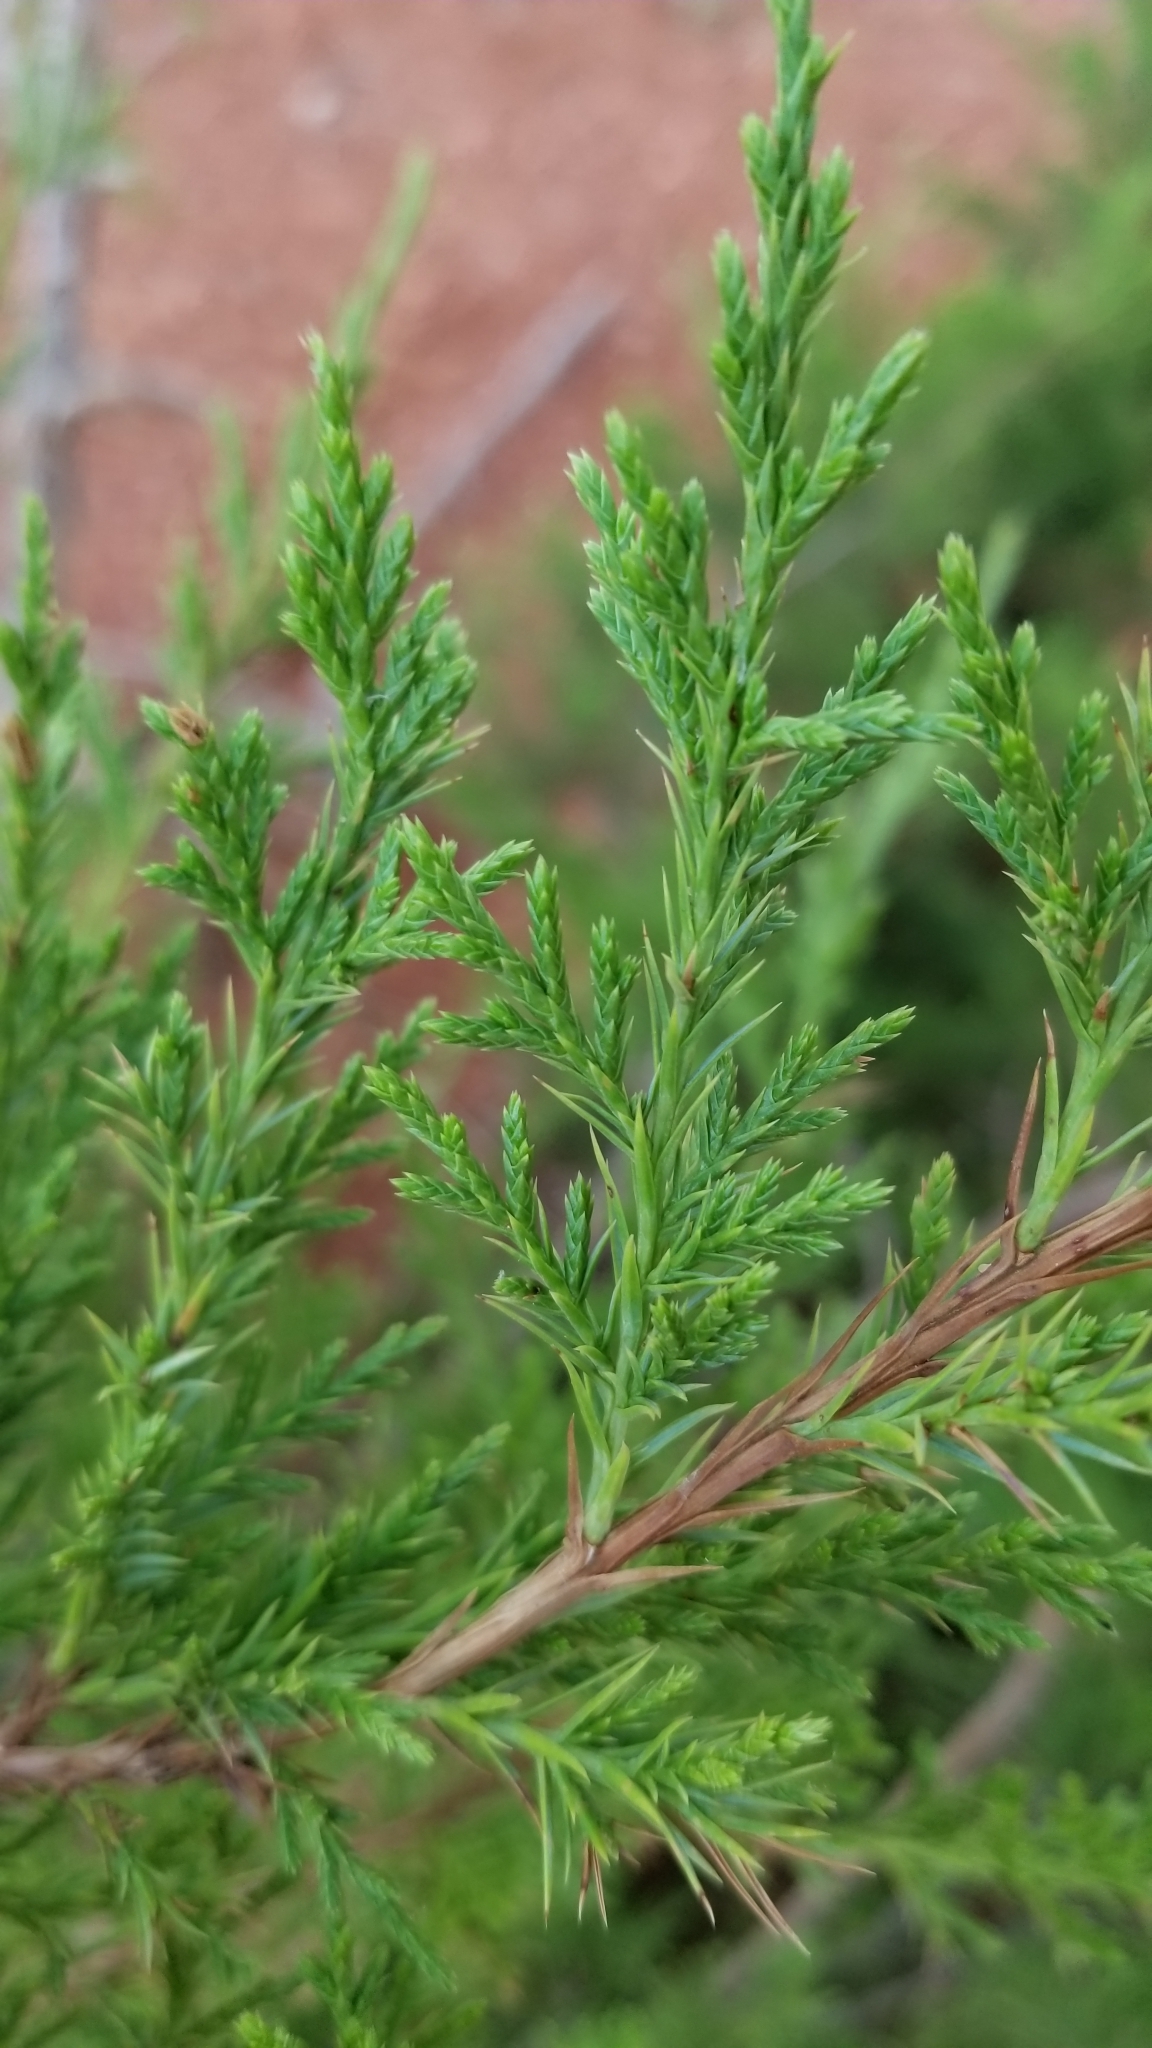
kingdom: Plantae
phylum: Tracheophyta
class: Pinopsida
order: Pinales
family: Cupressaceae
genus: Juniperus
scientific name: Juniperus virginiana
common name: Red juniper
